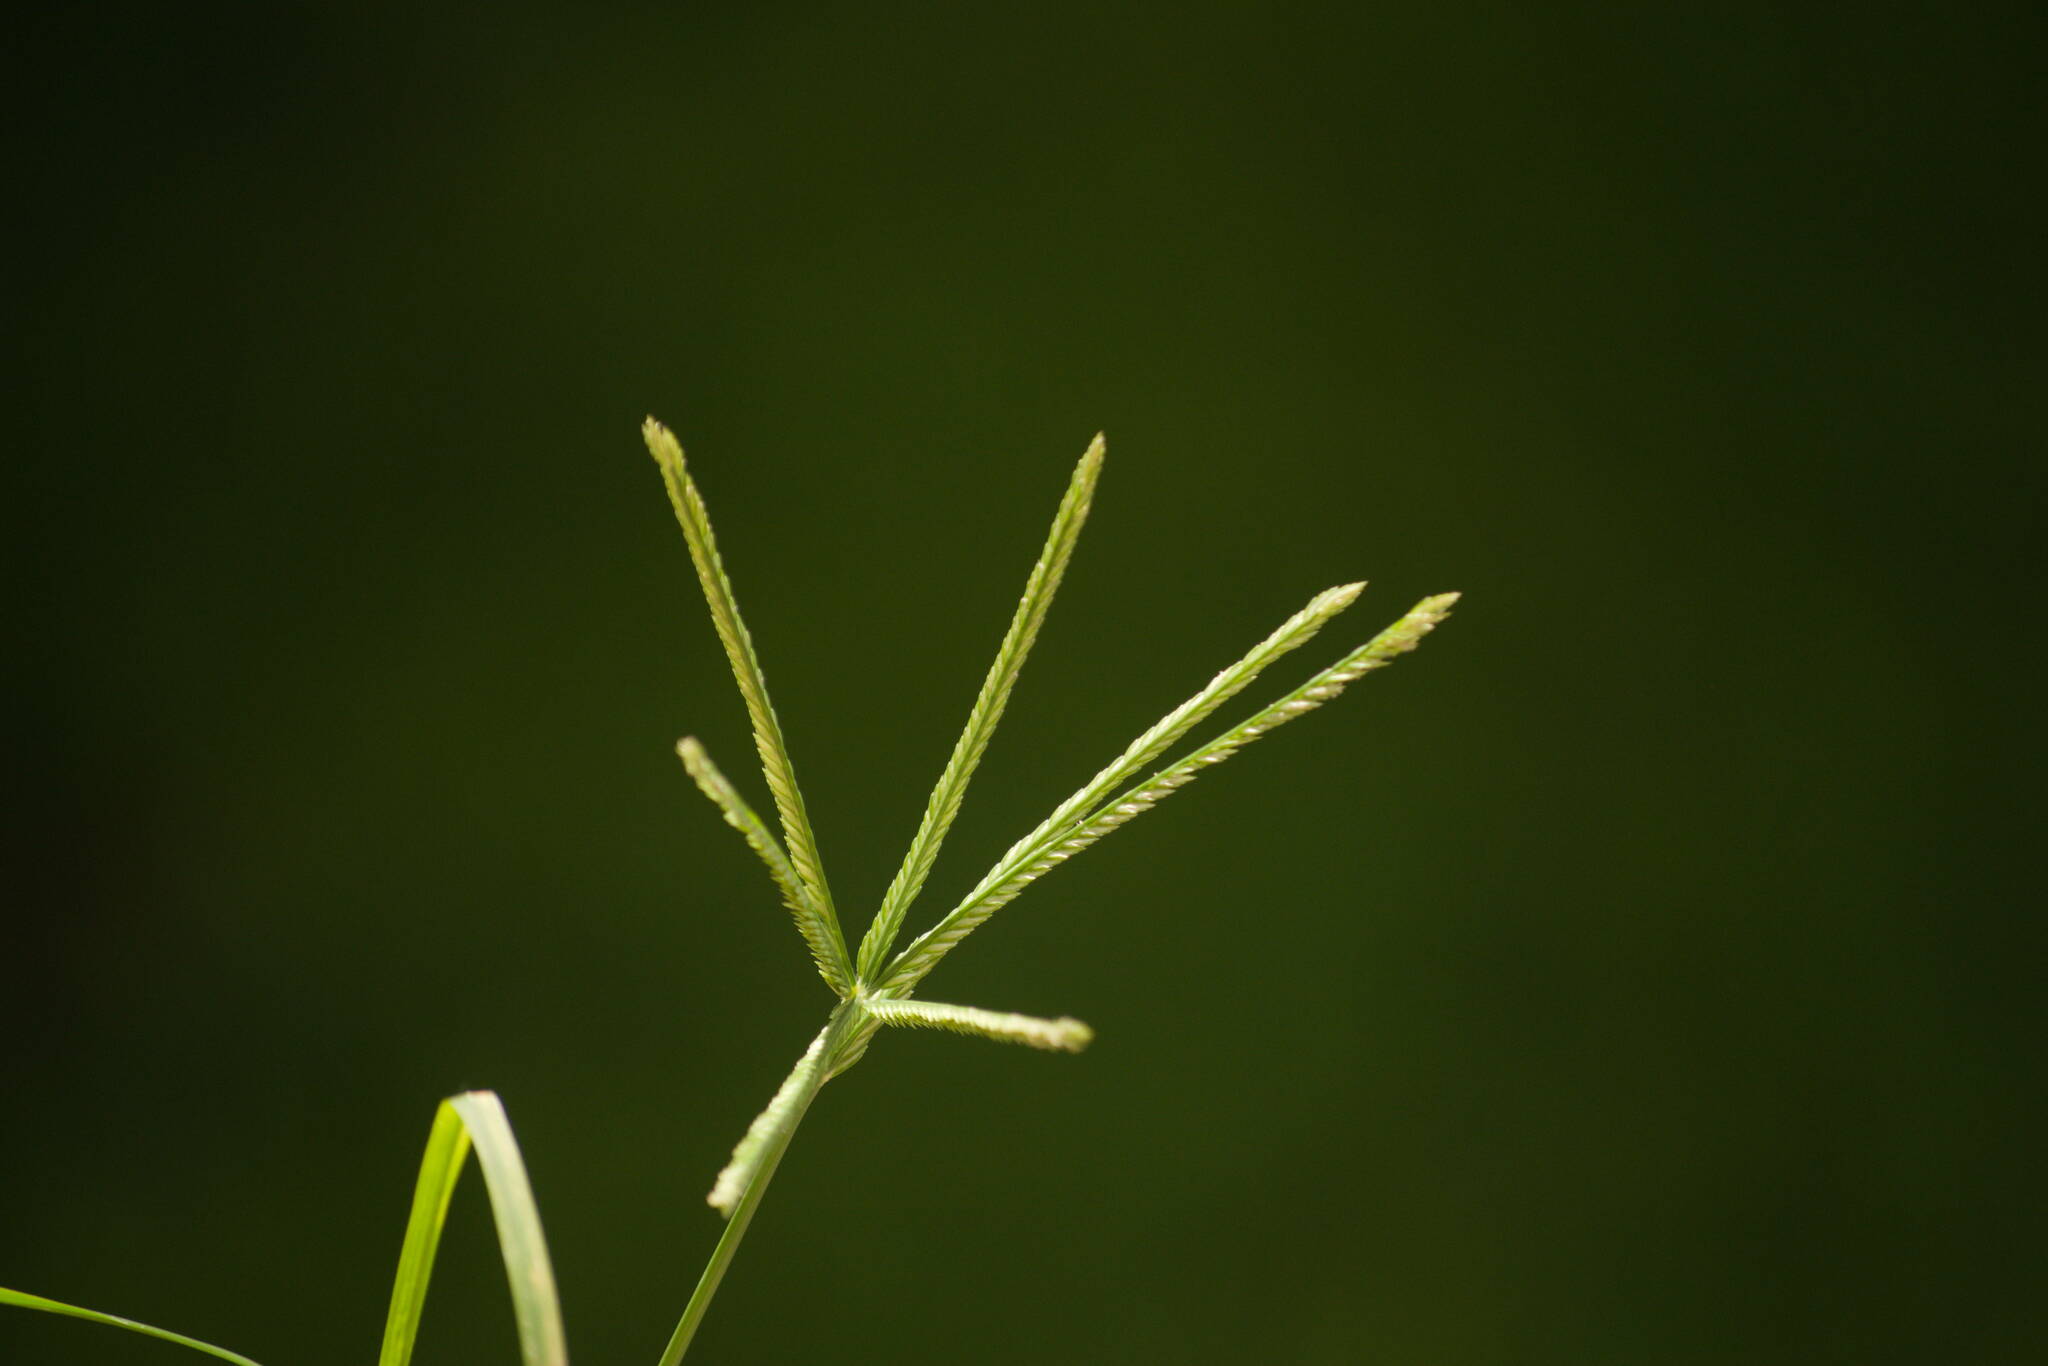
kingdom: Plantae
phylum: Tracheophyta
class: Liliopsida
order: Poales
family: Poaceae
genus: Eleusine
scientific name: Eleusine indica
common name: Yard-grass
